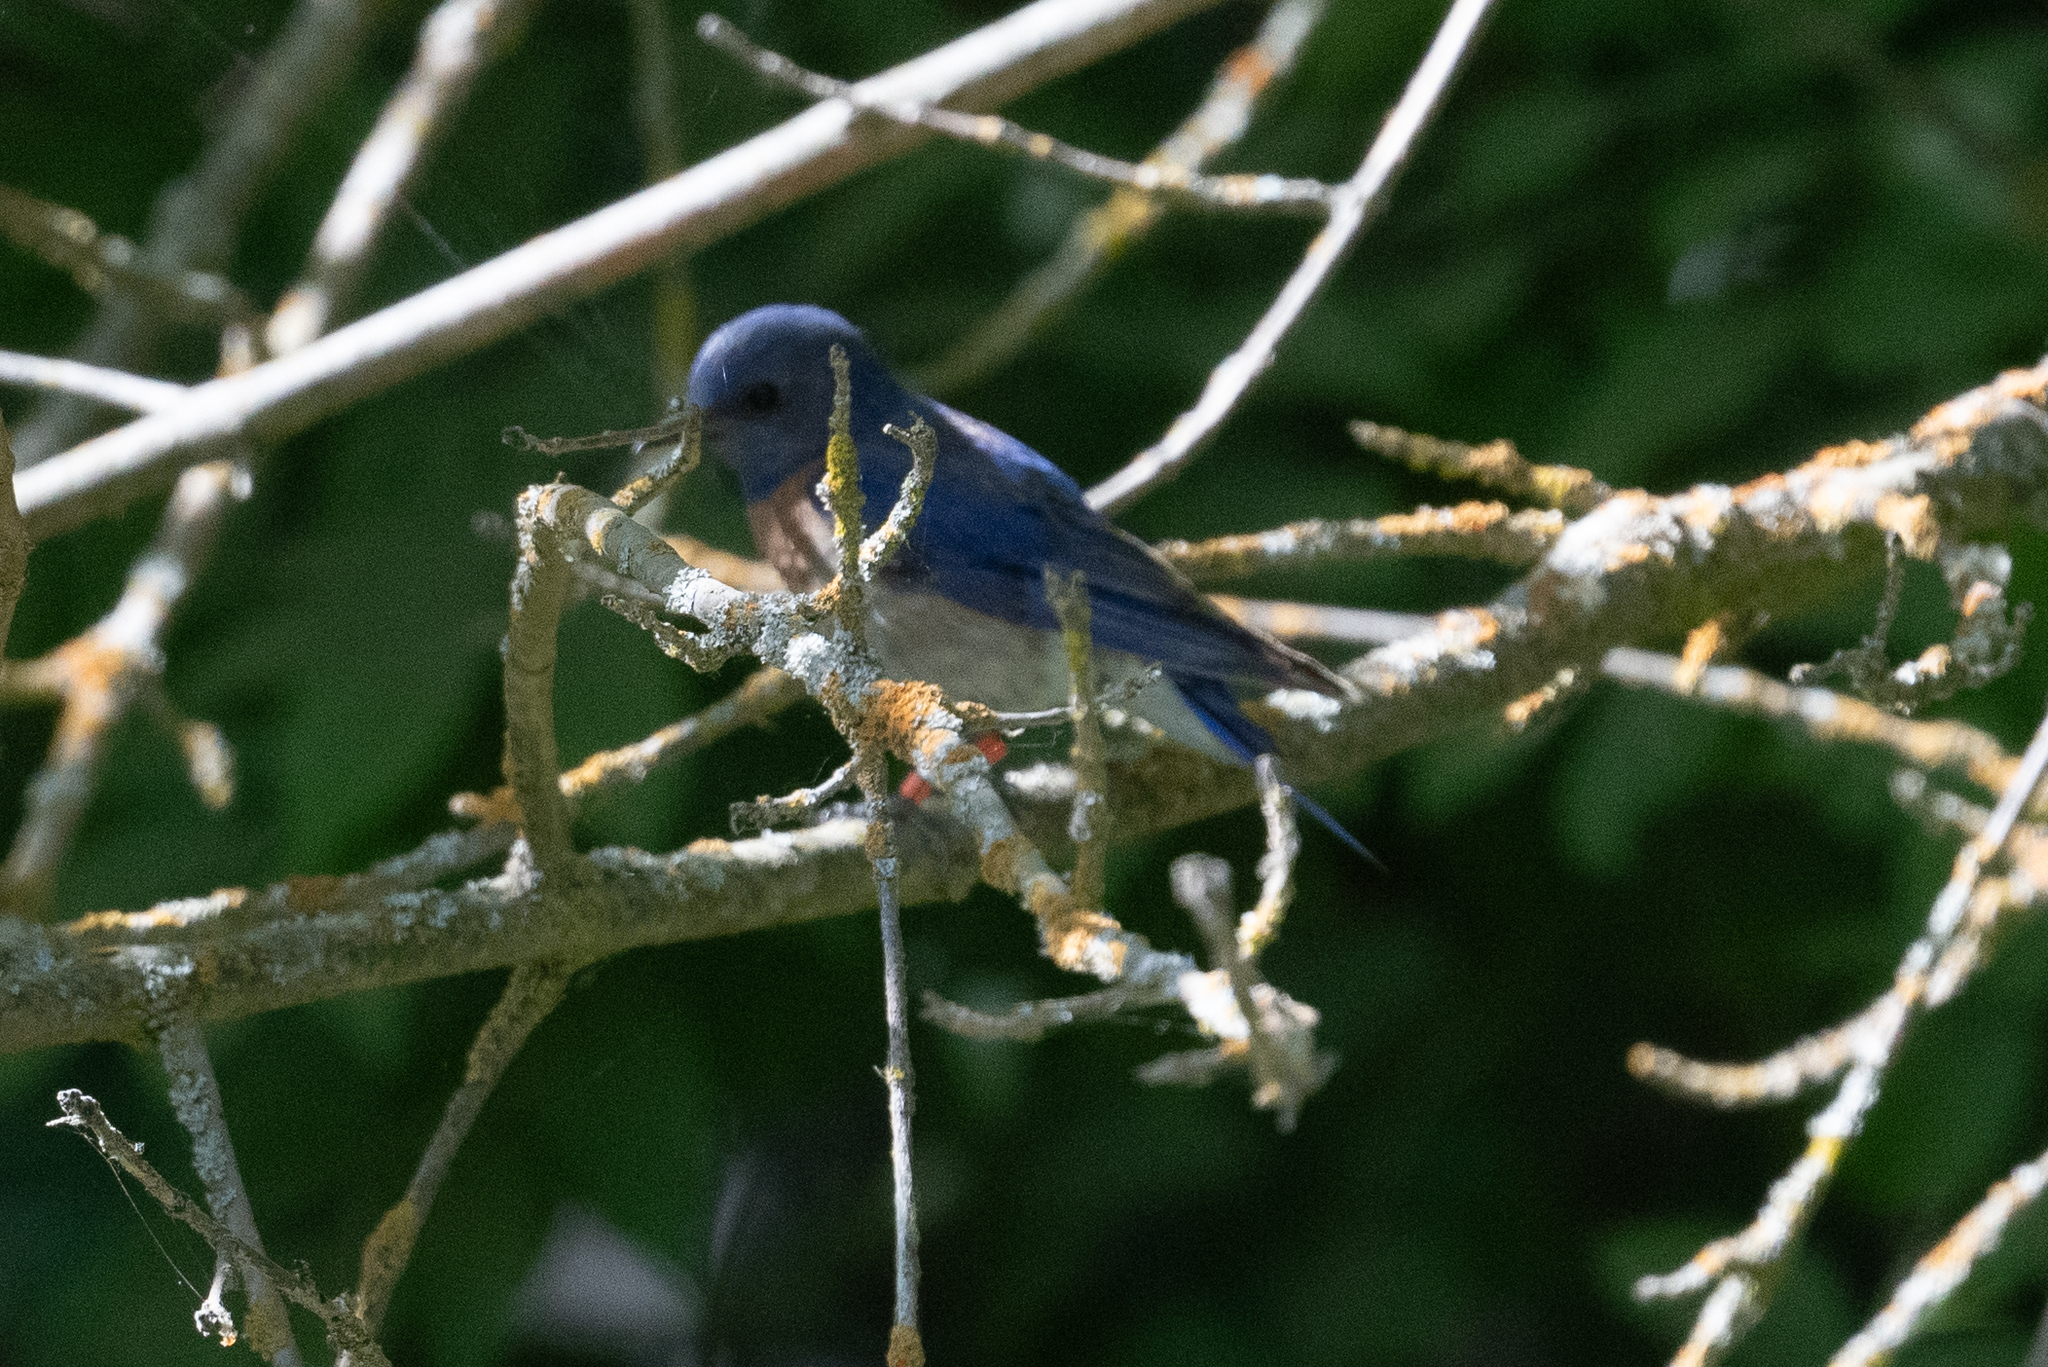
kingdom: Animalia
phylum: Chordata
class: Aves
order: Passeriformes
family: Turdidae
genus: Sialia
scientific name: Sialia mexicana
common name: Western bluebird
